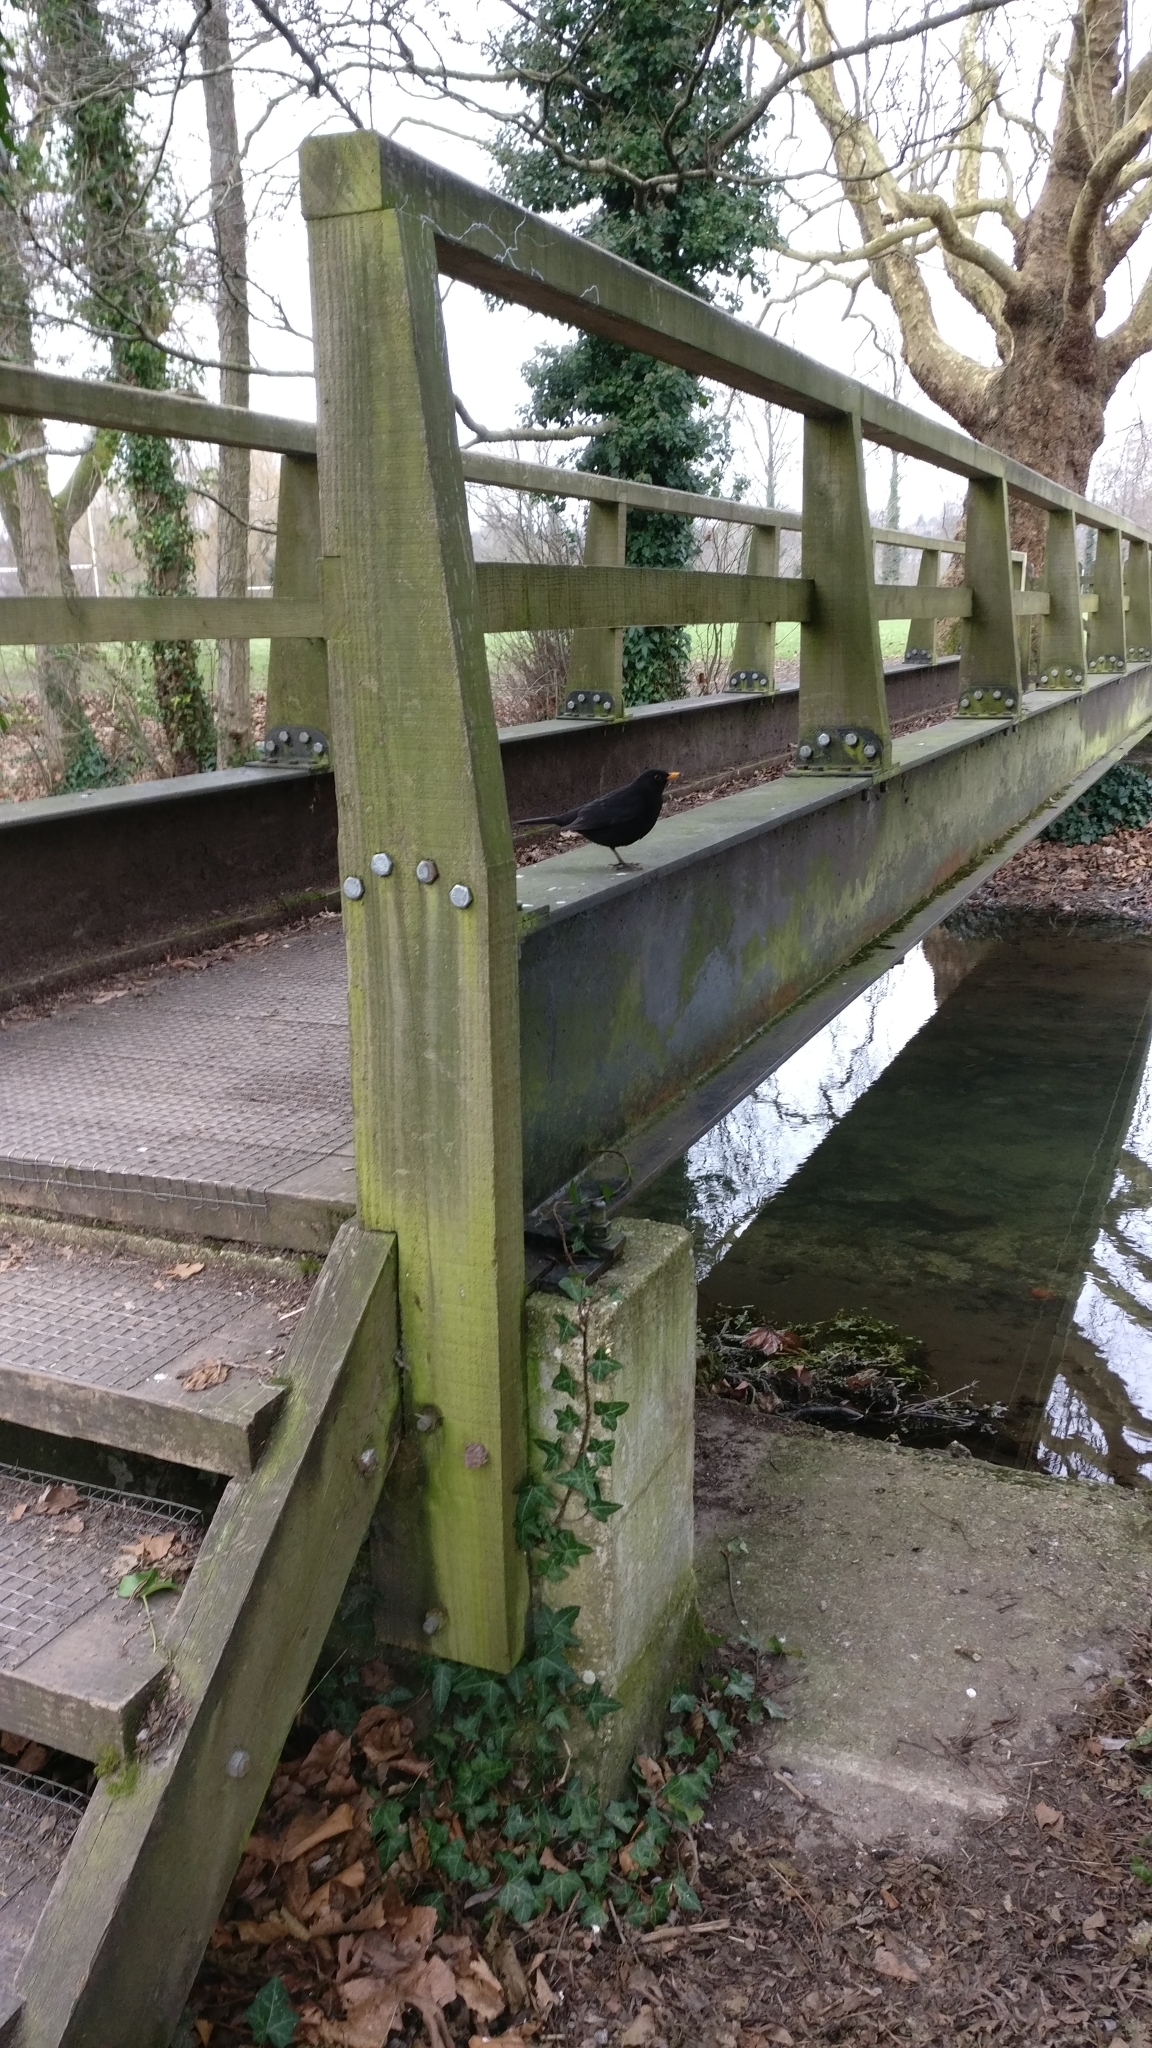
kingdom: Animalia
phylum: Chordata
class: Aves
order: Passeriformes
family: Turdidae
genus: Turdus
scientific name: Turdus merula
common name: Common blackbird
